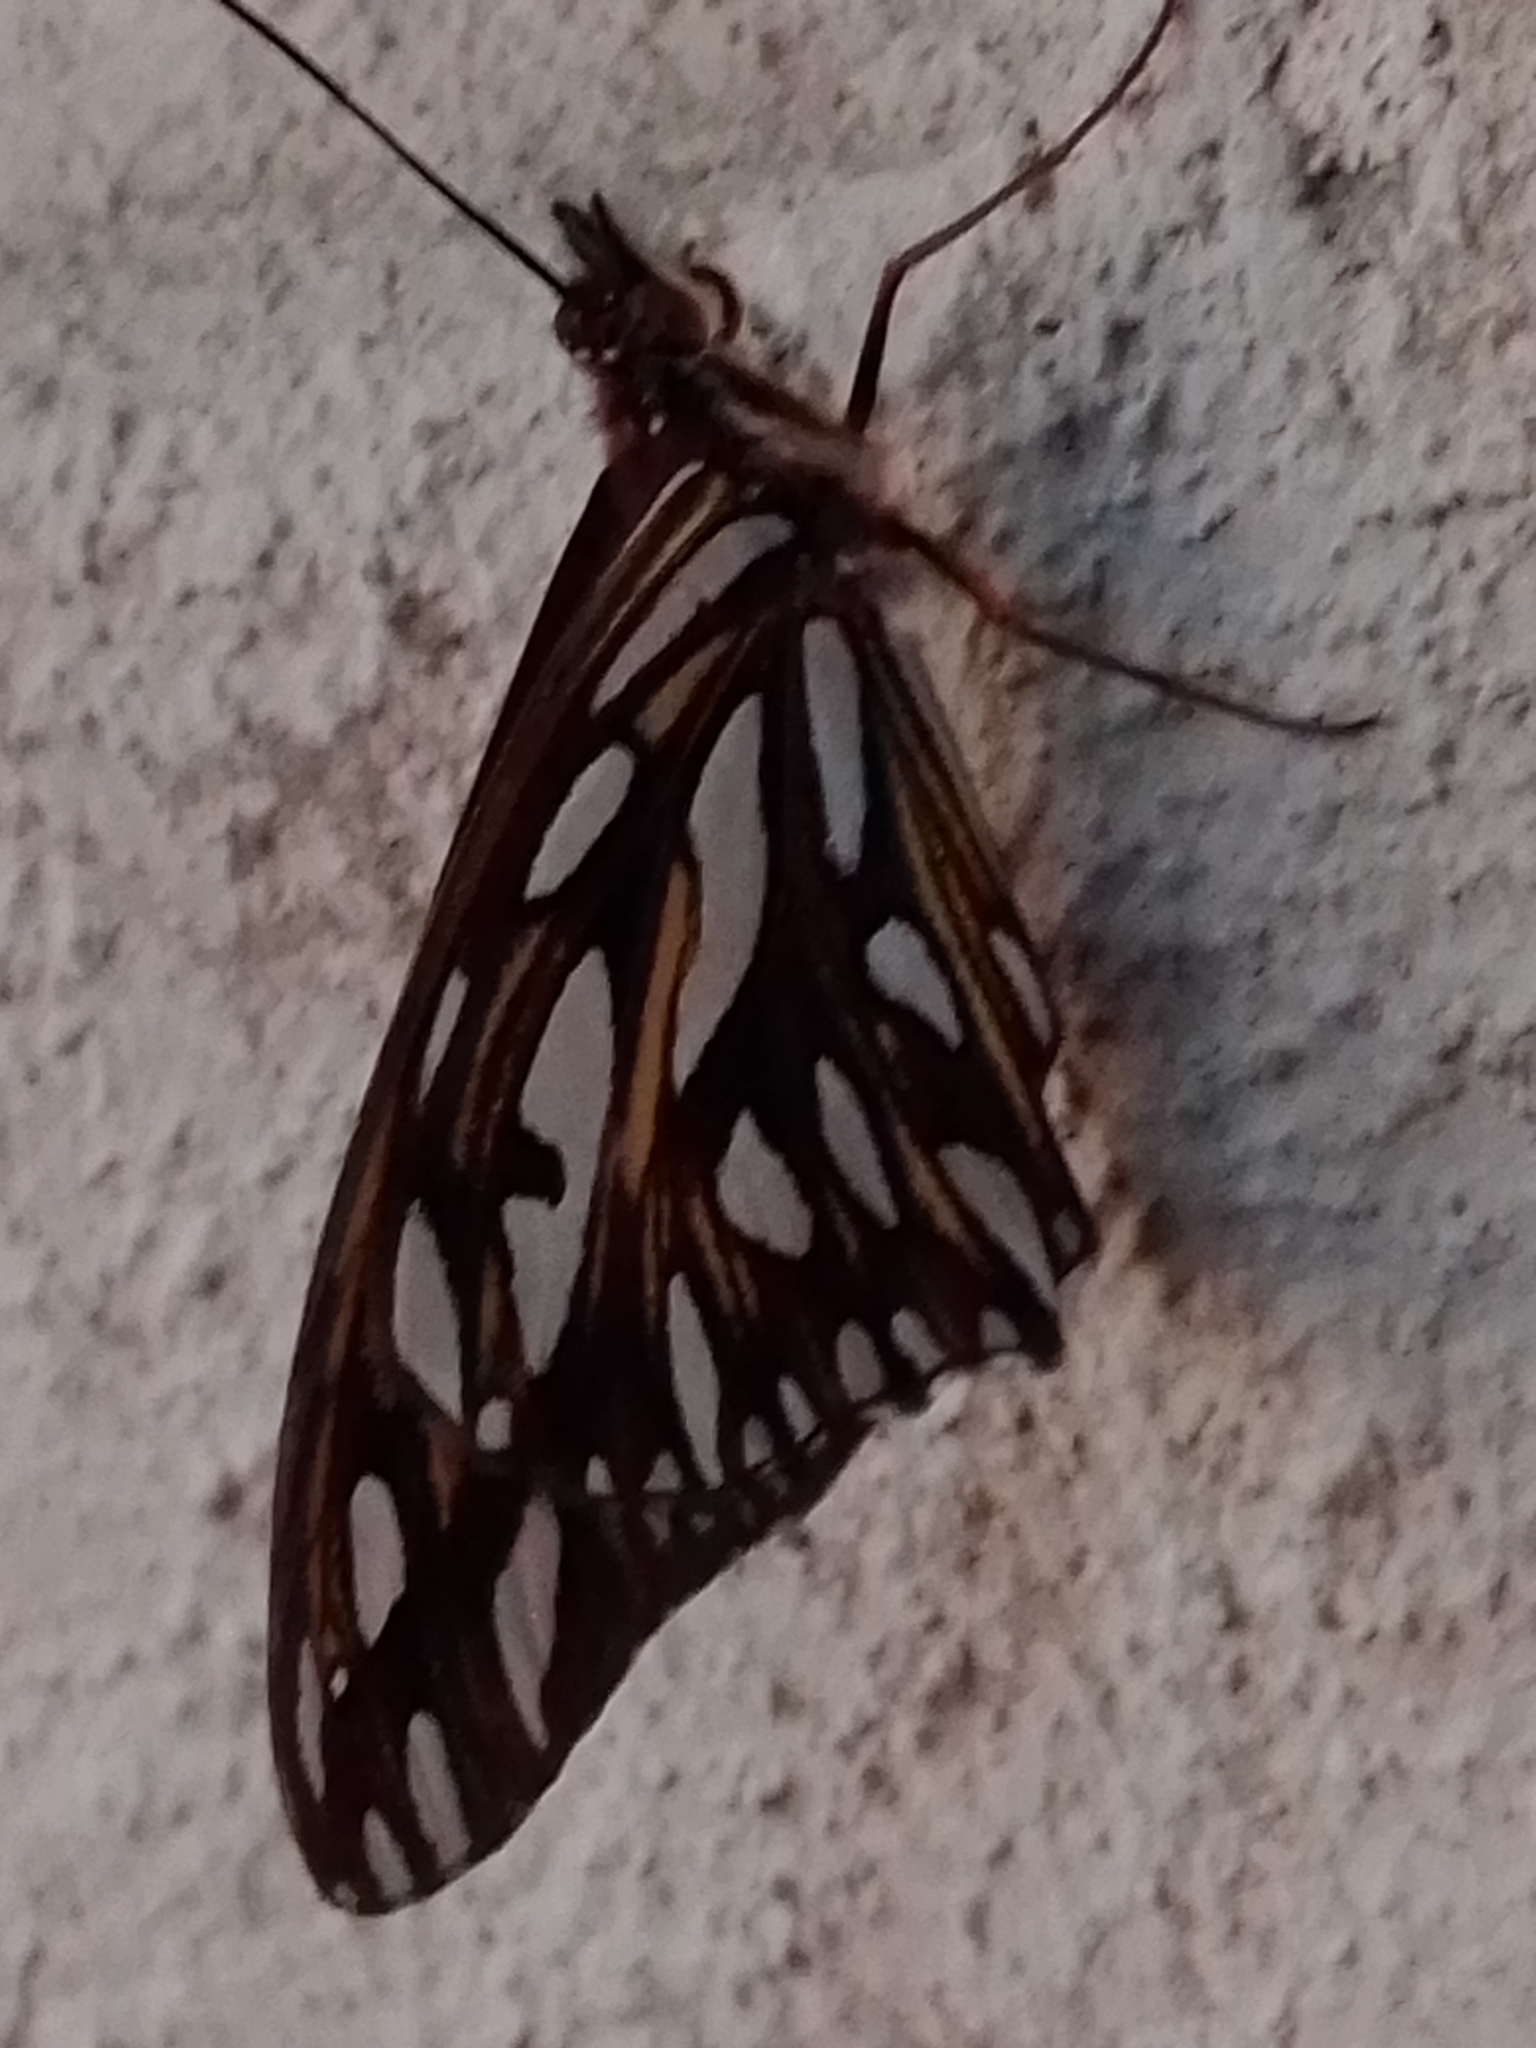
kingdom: Animalia
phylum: Arthropoda
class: Insecta
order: Lepidoptera
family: Nymphalidae
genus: Dione
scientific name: Dione vanillae
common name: Gulf fritillary
